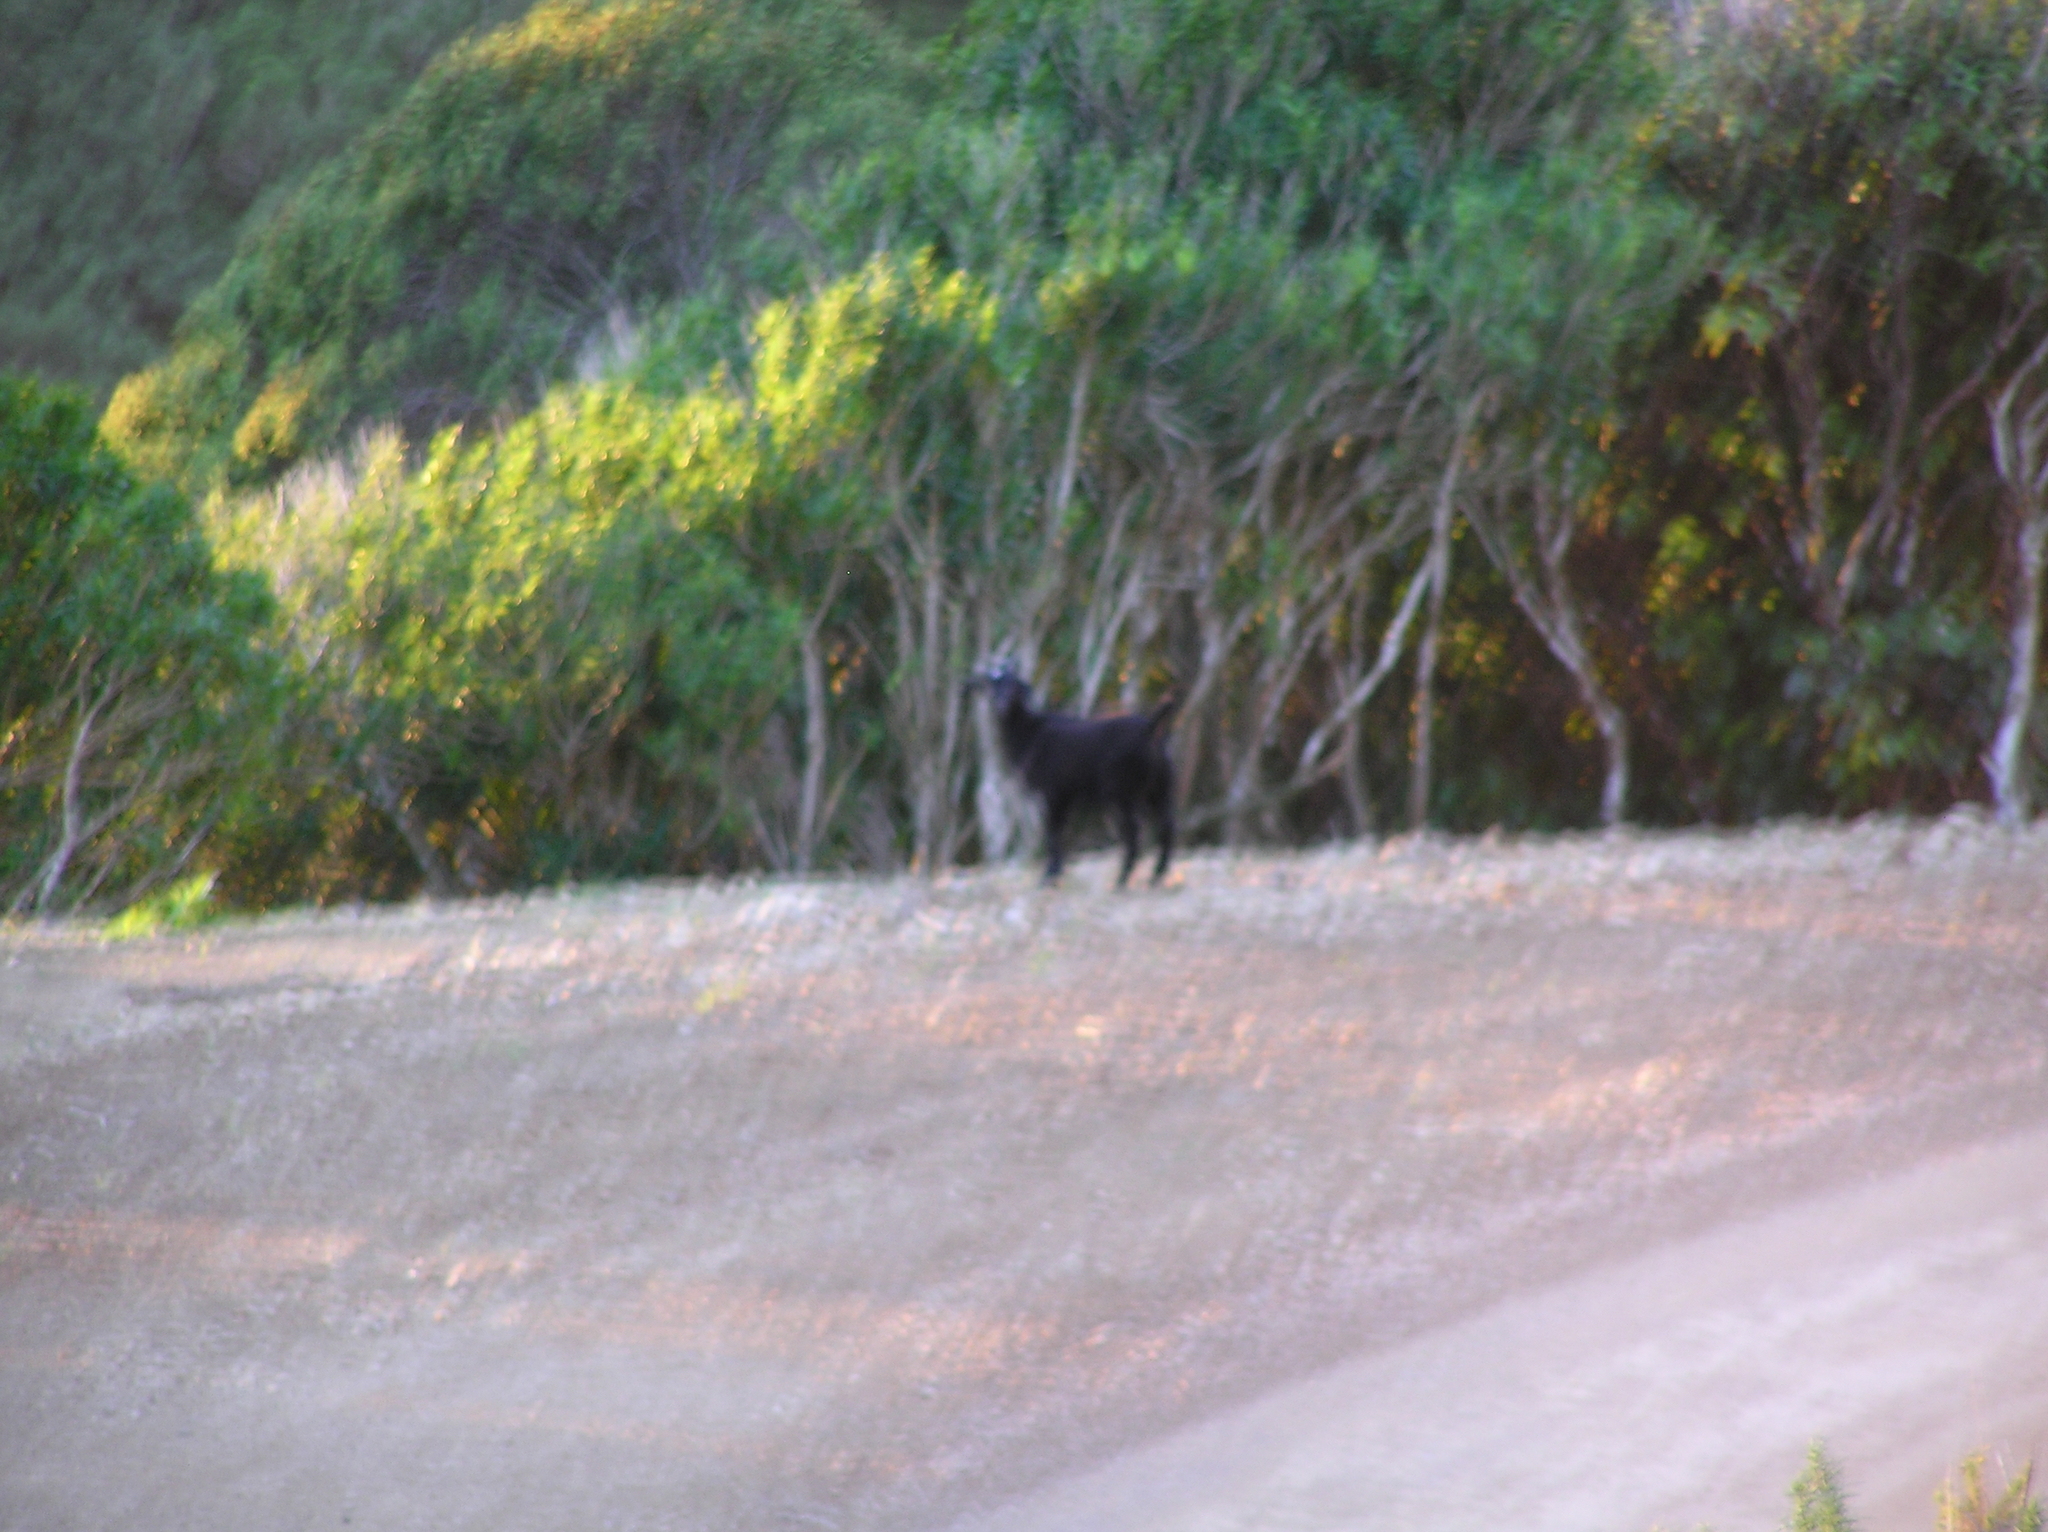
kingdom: Animalia
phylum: Chordata
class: Mammalia
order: Artiodactyla
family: Bovidae
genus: Capra
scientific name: Capra hircus
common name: Domestic goat
